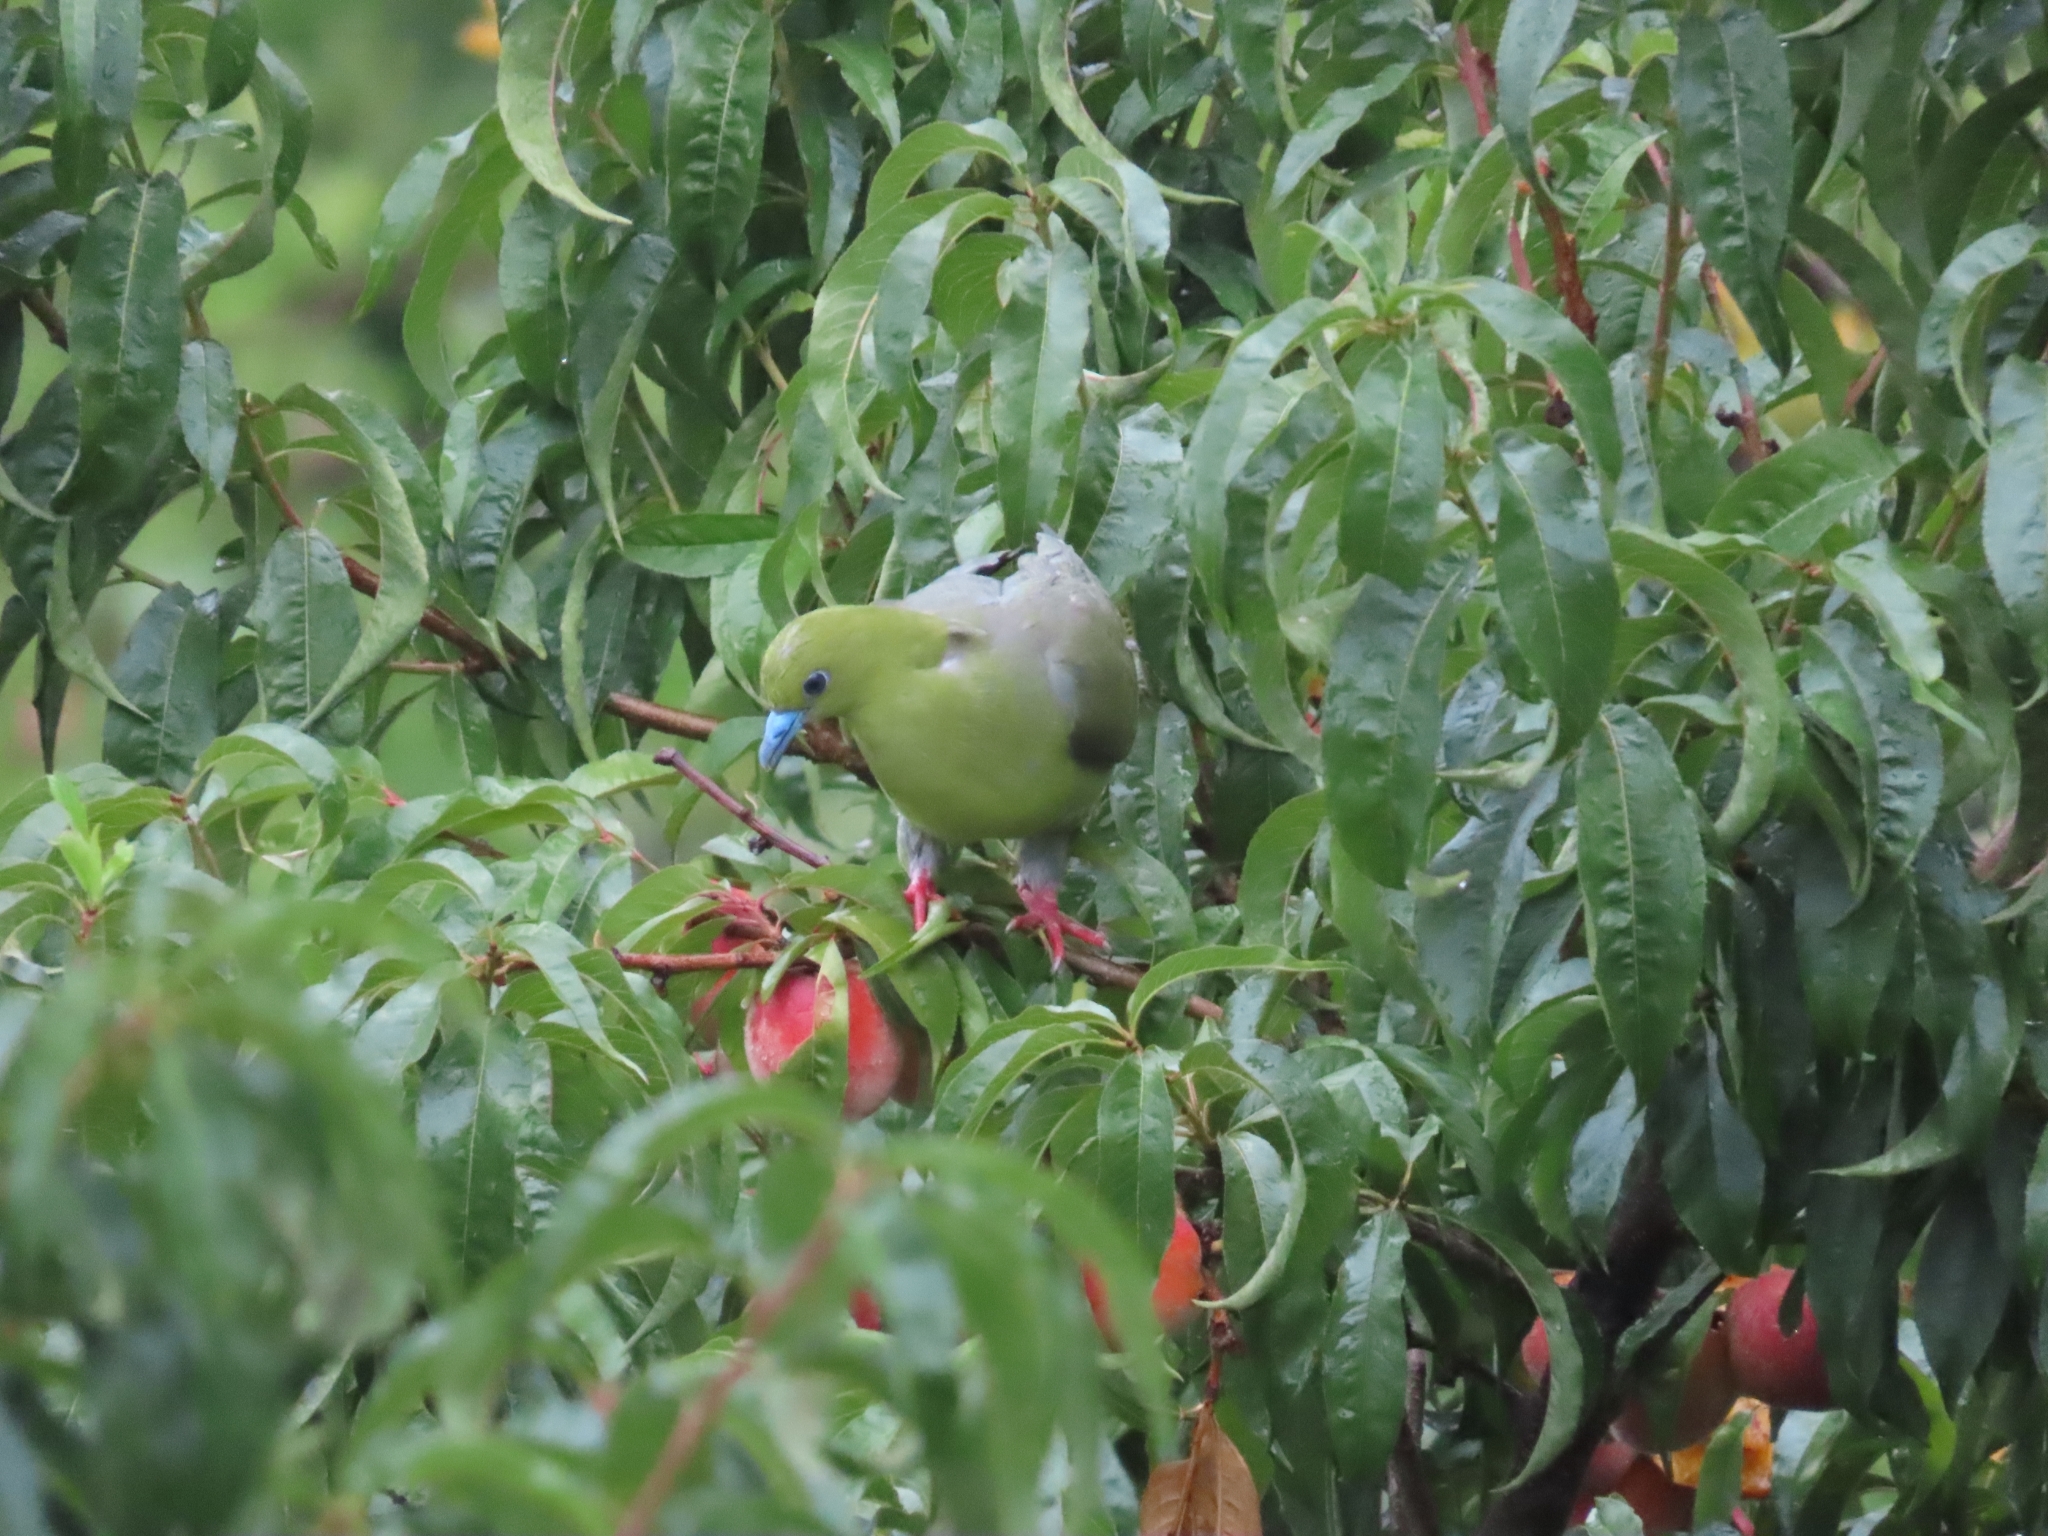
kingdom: Animalia
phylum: Chordata
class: Aves
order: Columbiformes
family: Columbidae
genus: Treron
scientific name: Treron sphenurus
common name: Wedge-tailed green pigeon
